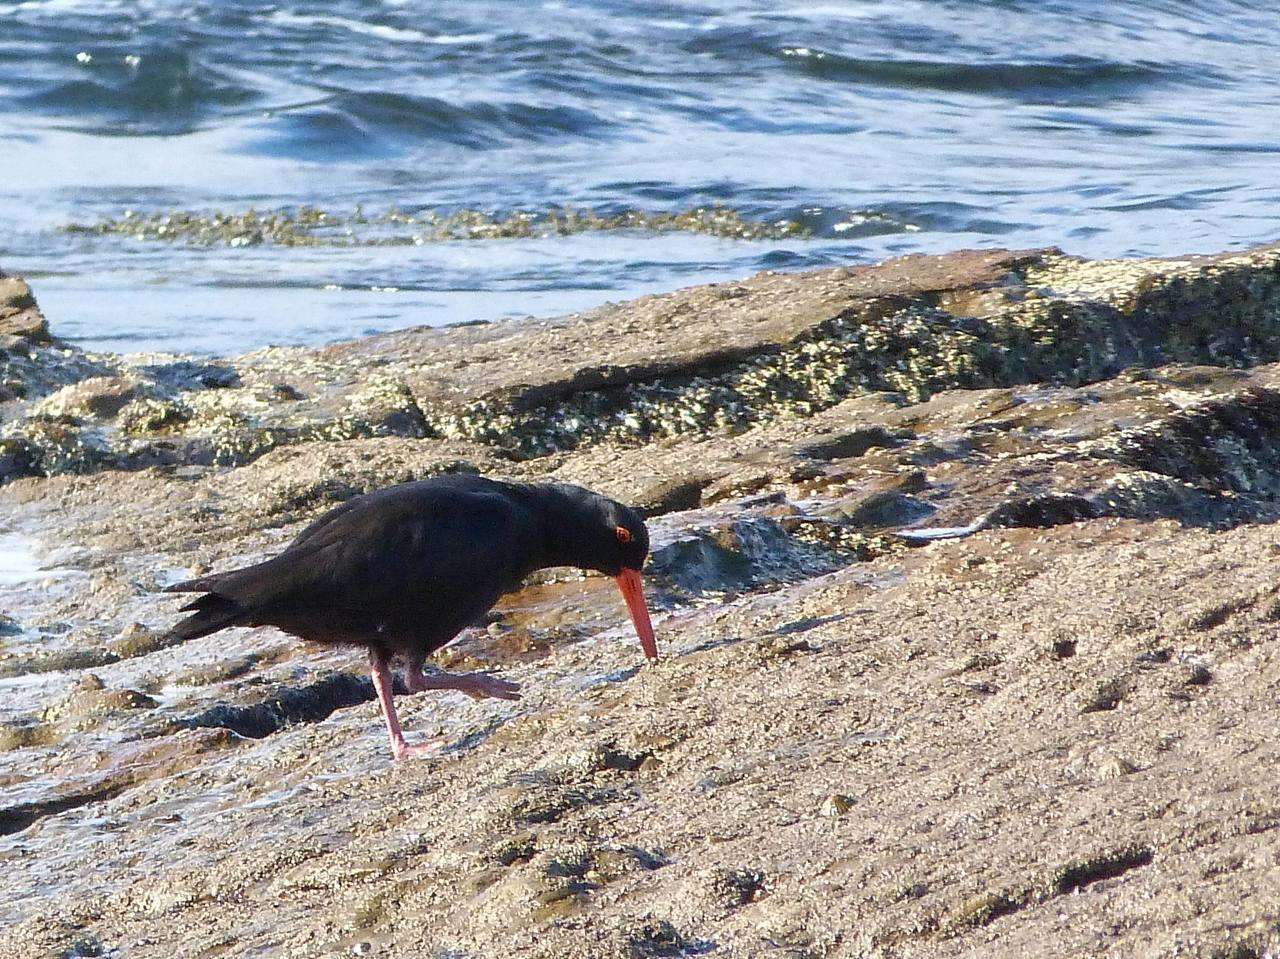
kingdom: Animalia
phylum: Chordata
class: Aves
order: Charadriiformes
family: Haematopodidae
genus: Haematopus
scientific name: Haematopus fuliginosus
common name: Sooty oystercatcher
